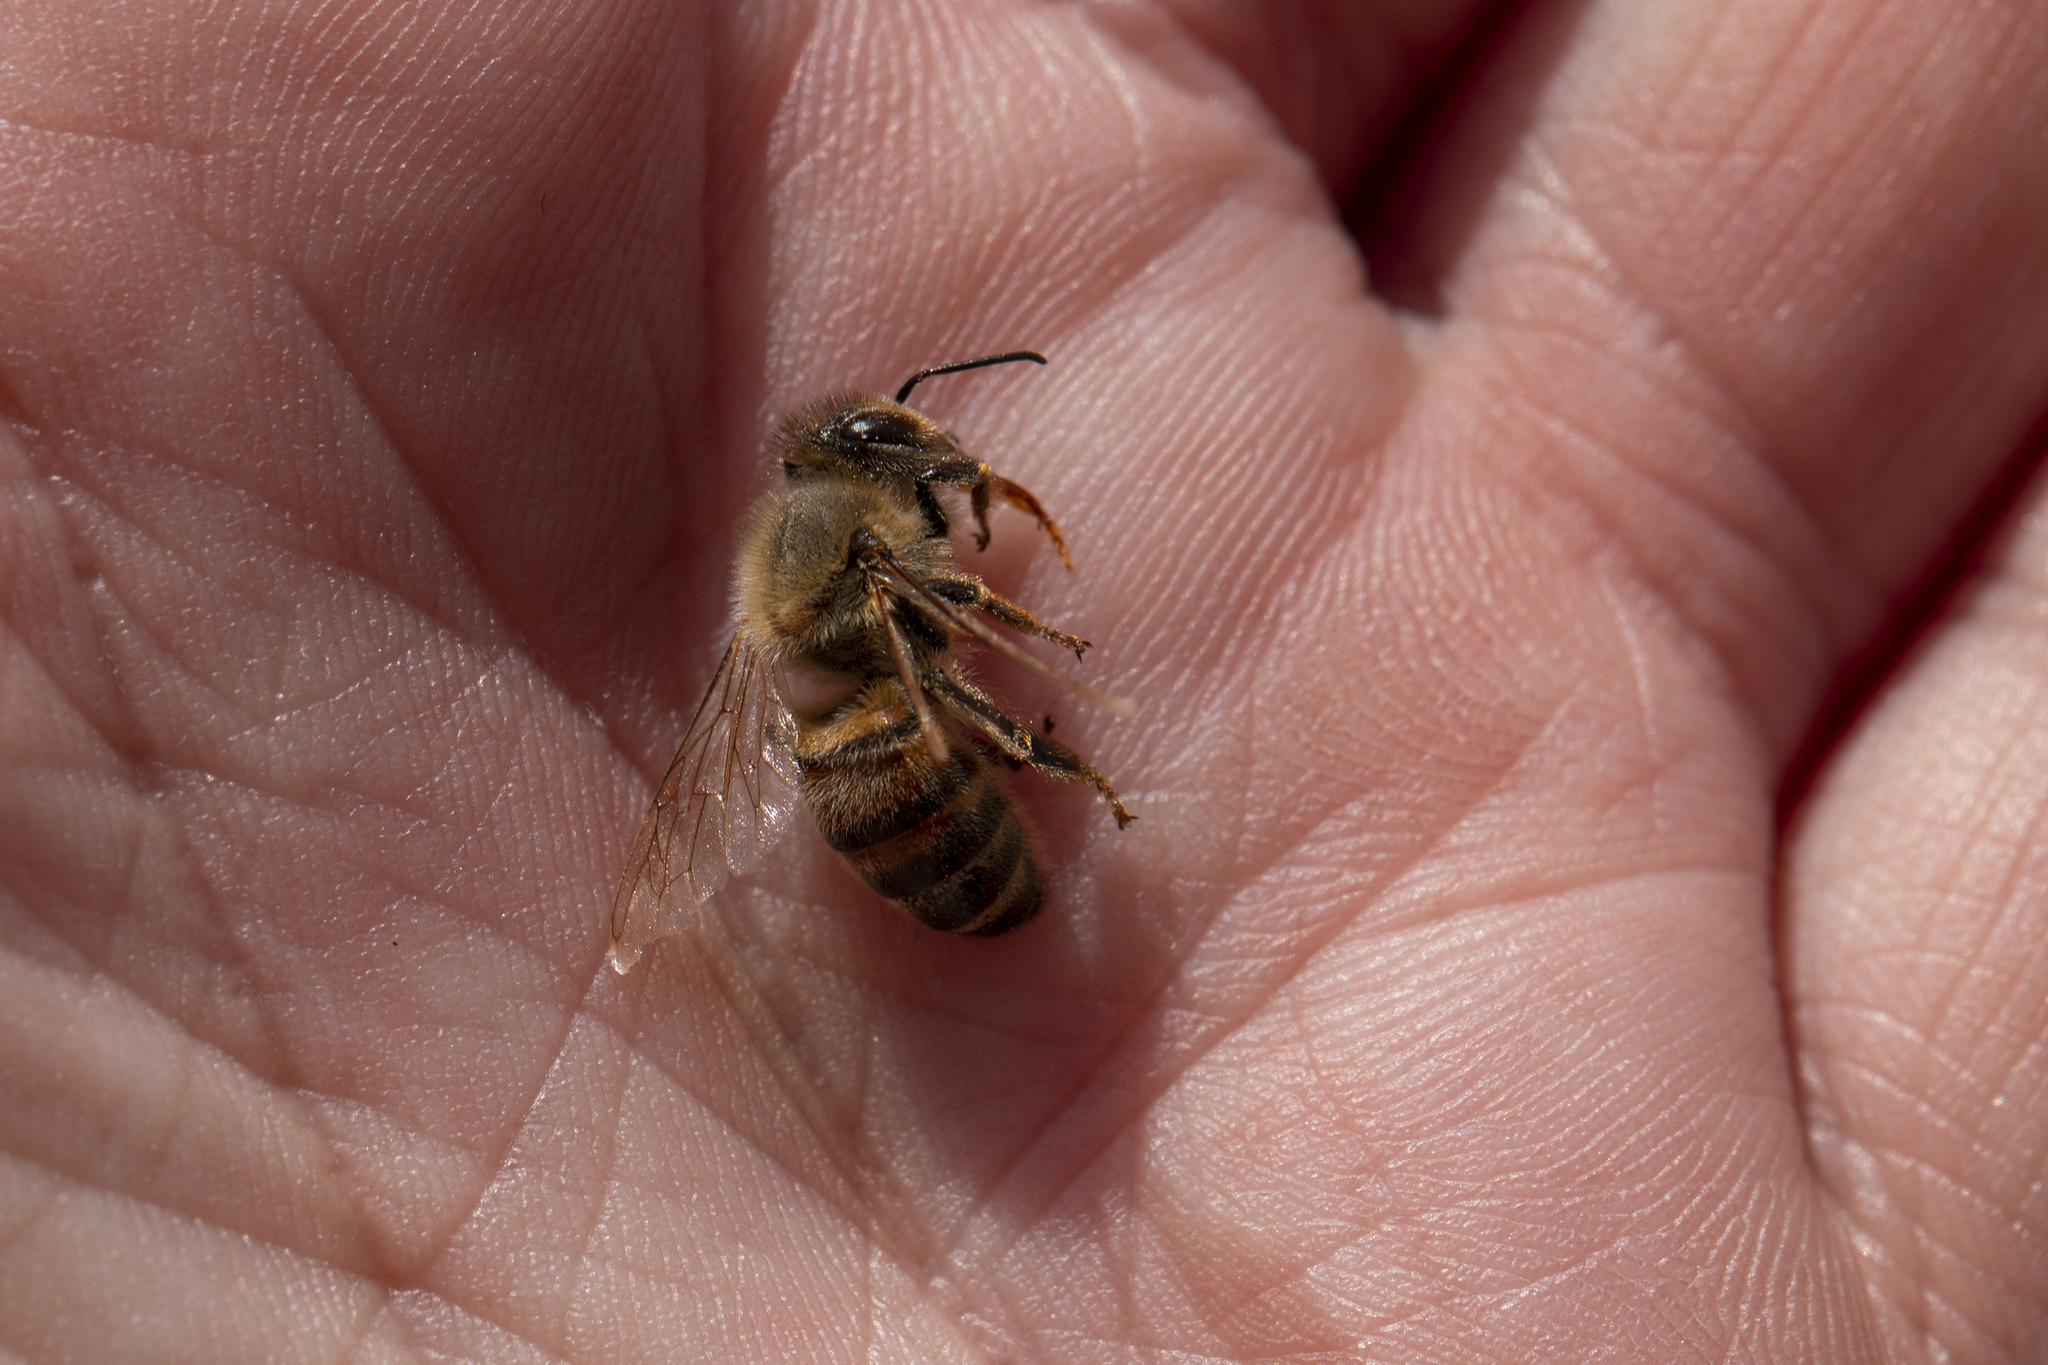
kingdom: Animalia
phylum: Arthropoda
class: Insecta
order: Hymenoptera
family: Apidae
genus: Apis
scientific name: Apis mellifera
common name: Honey bee
